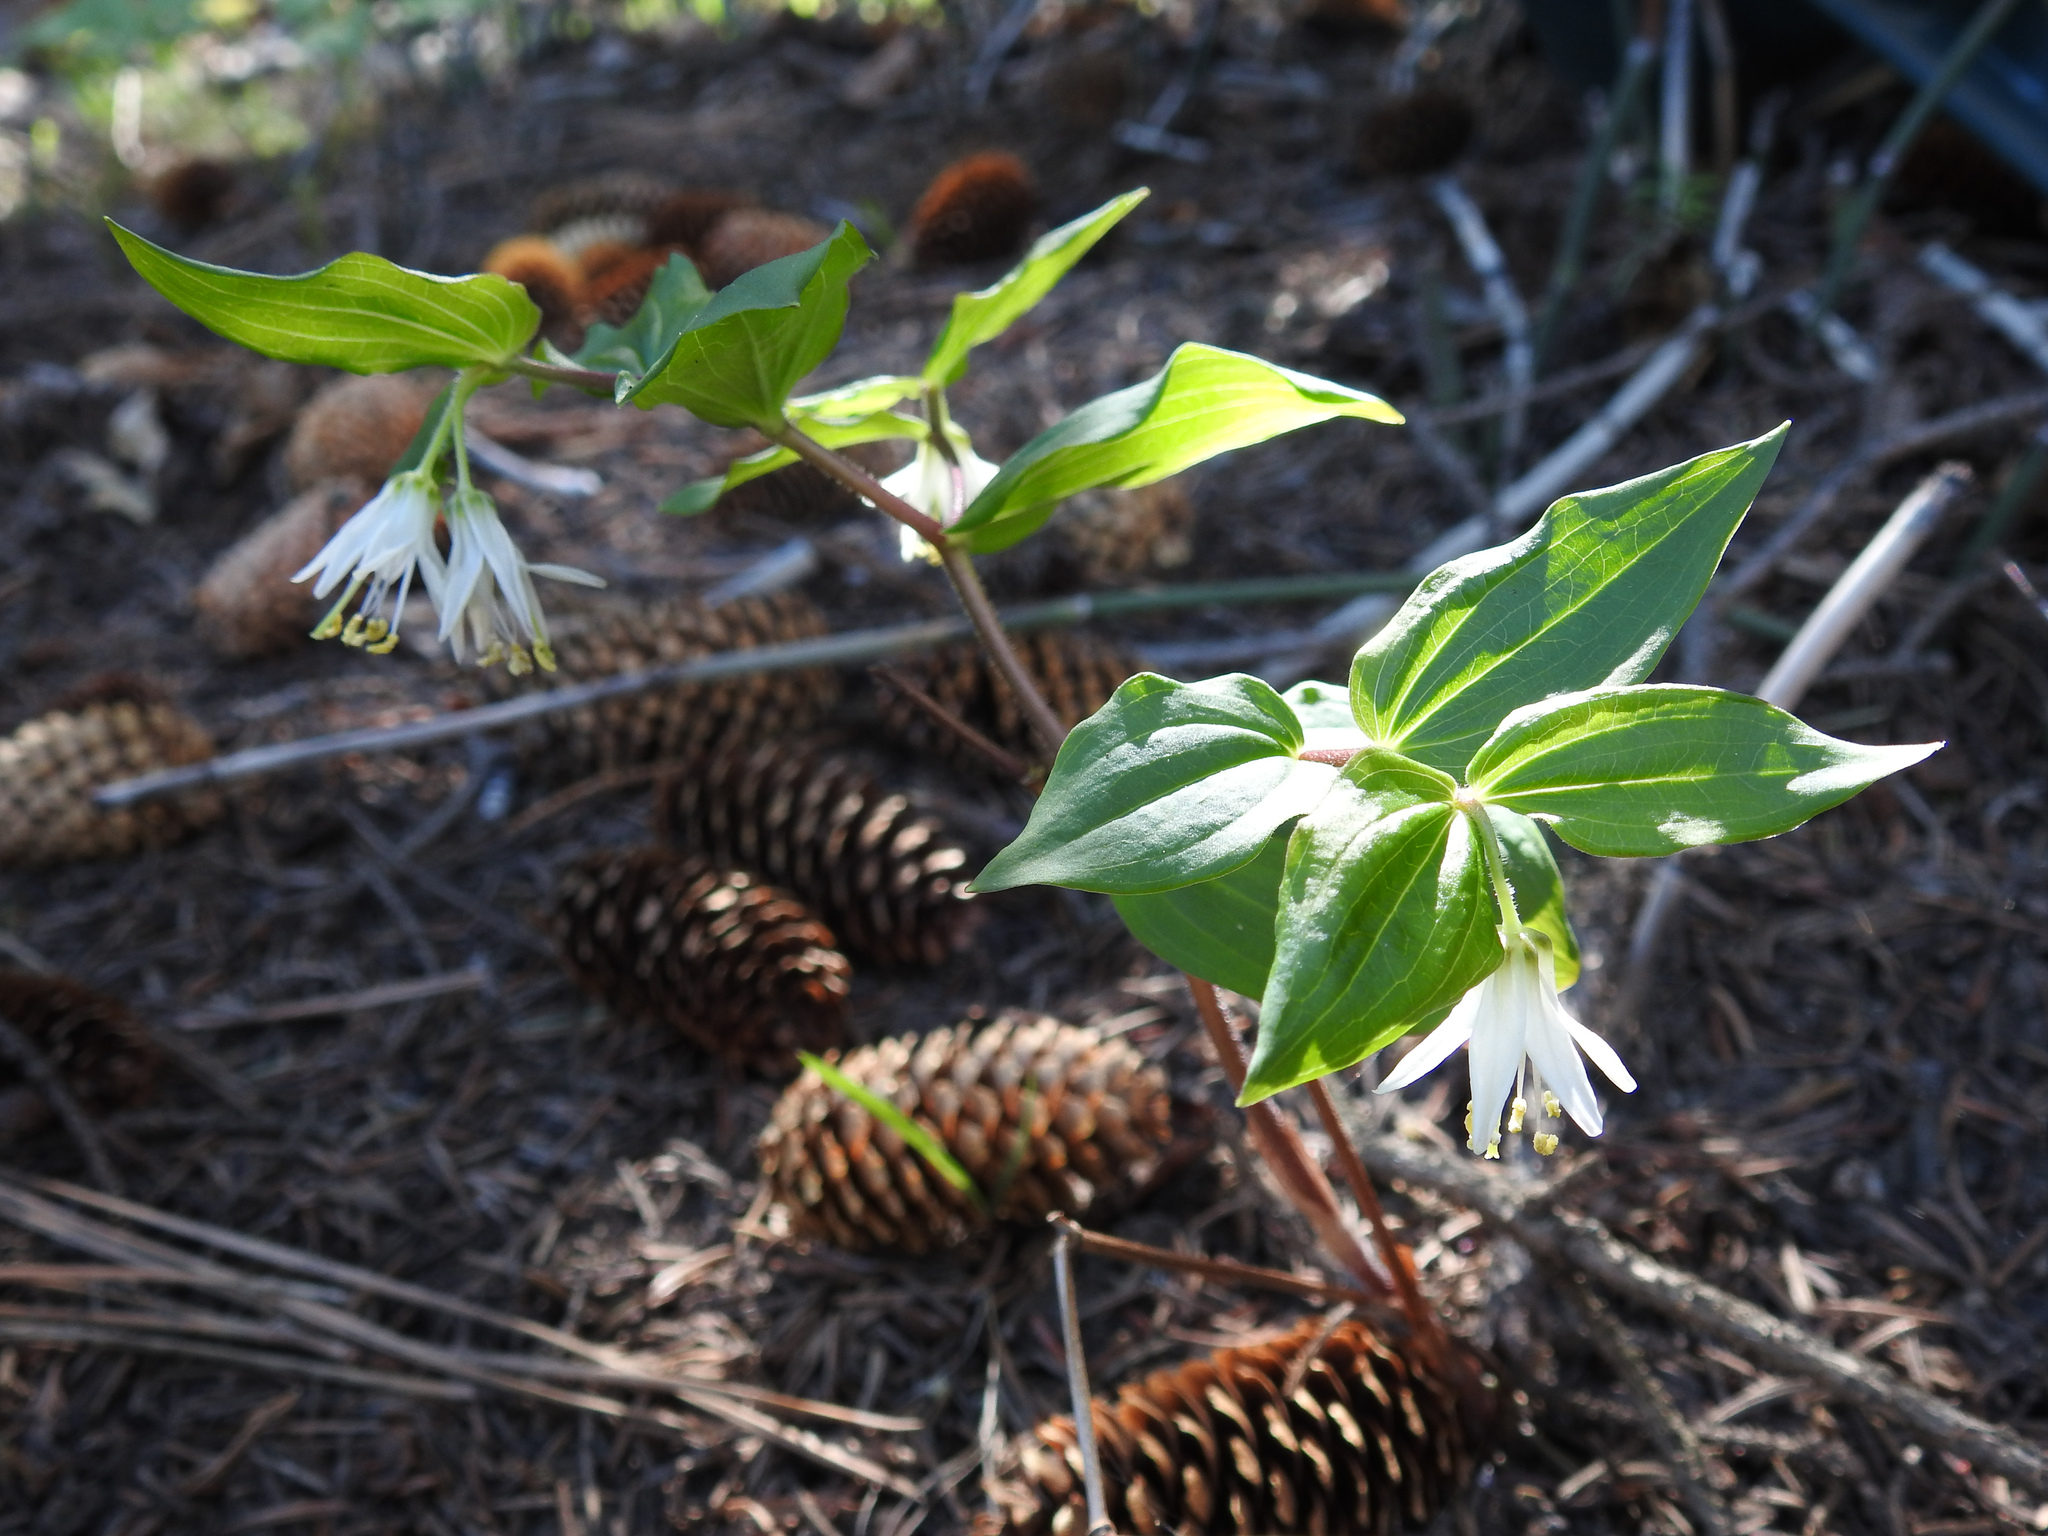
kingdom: Plantae
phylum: Tracheophyta
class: Liliopsida
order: Liliales
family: Liliaceae
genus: Prosartes
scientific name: Prosartes trachycarpa
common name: Rough-fruit fairy-bells
